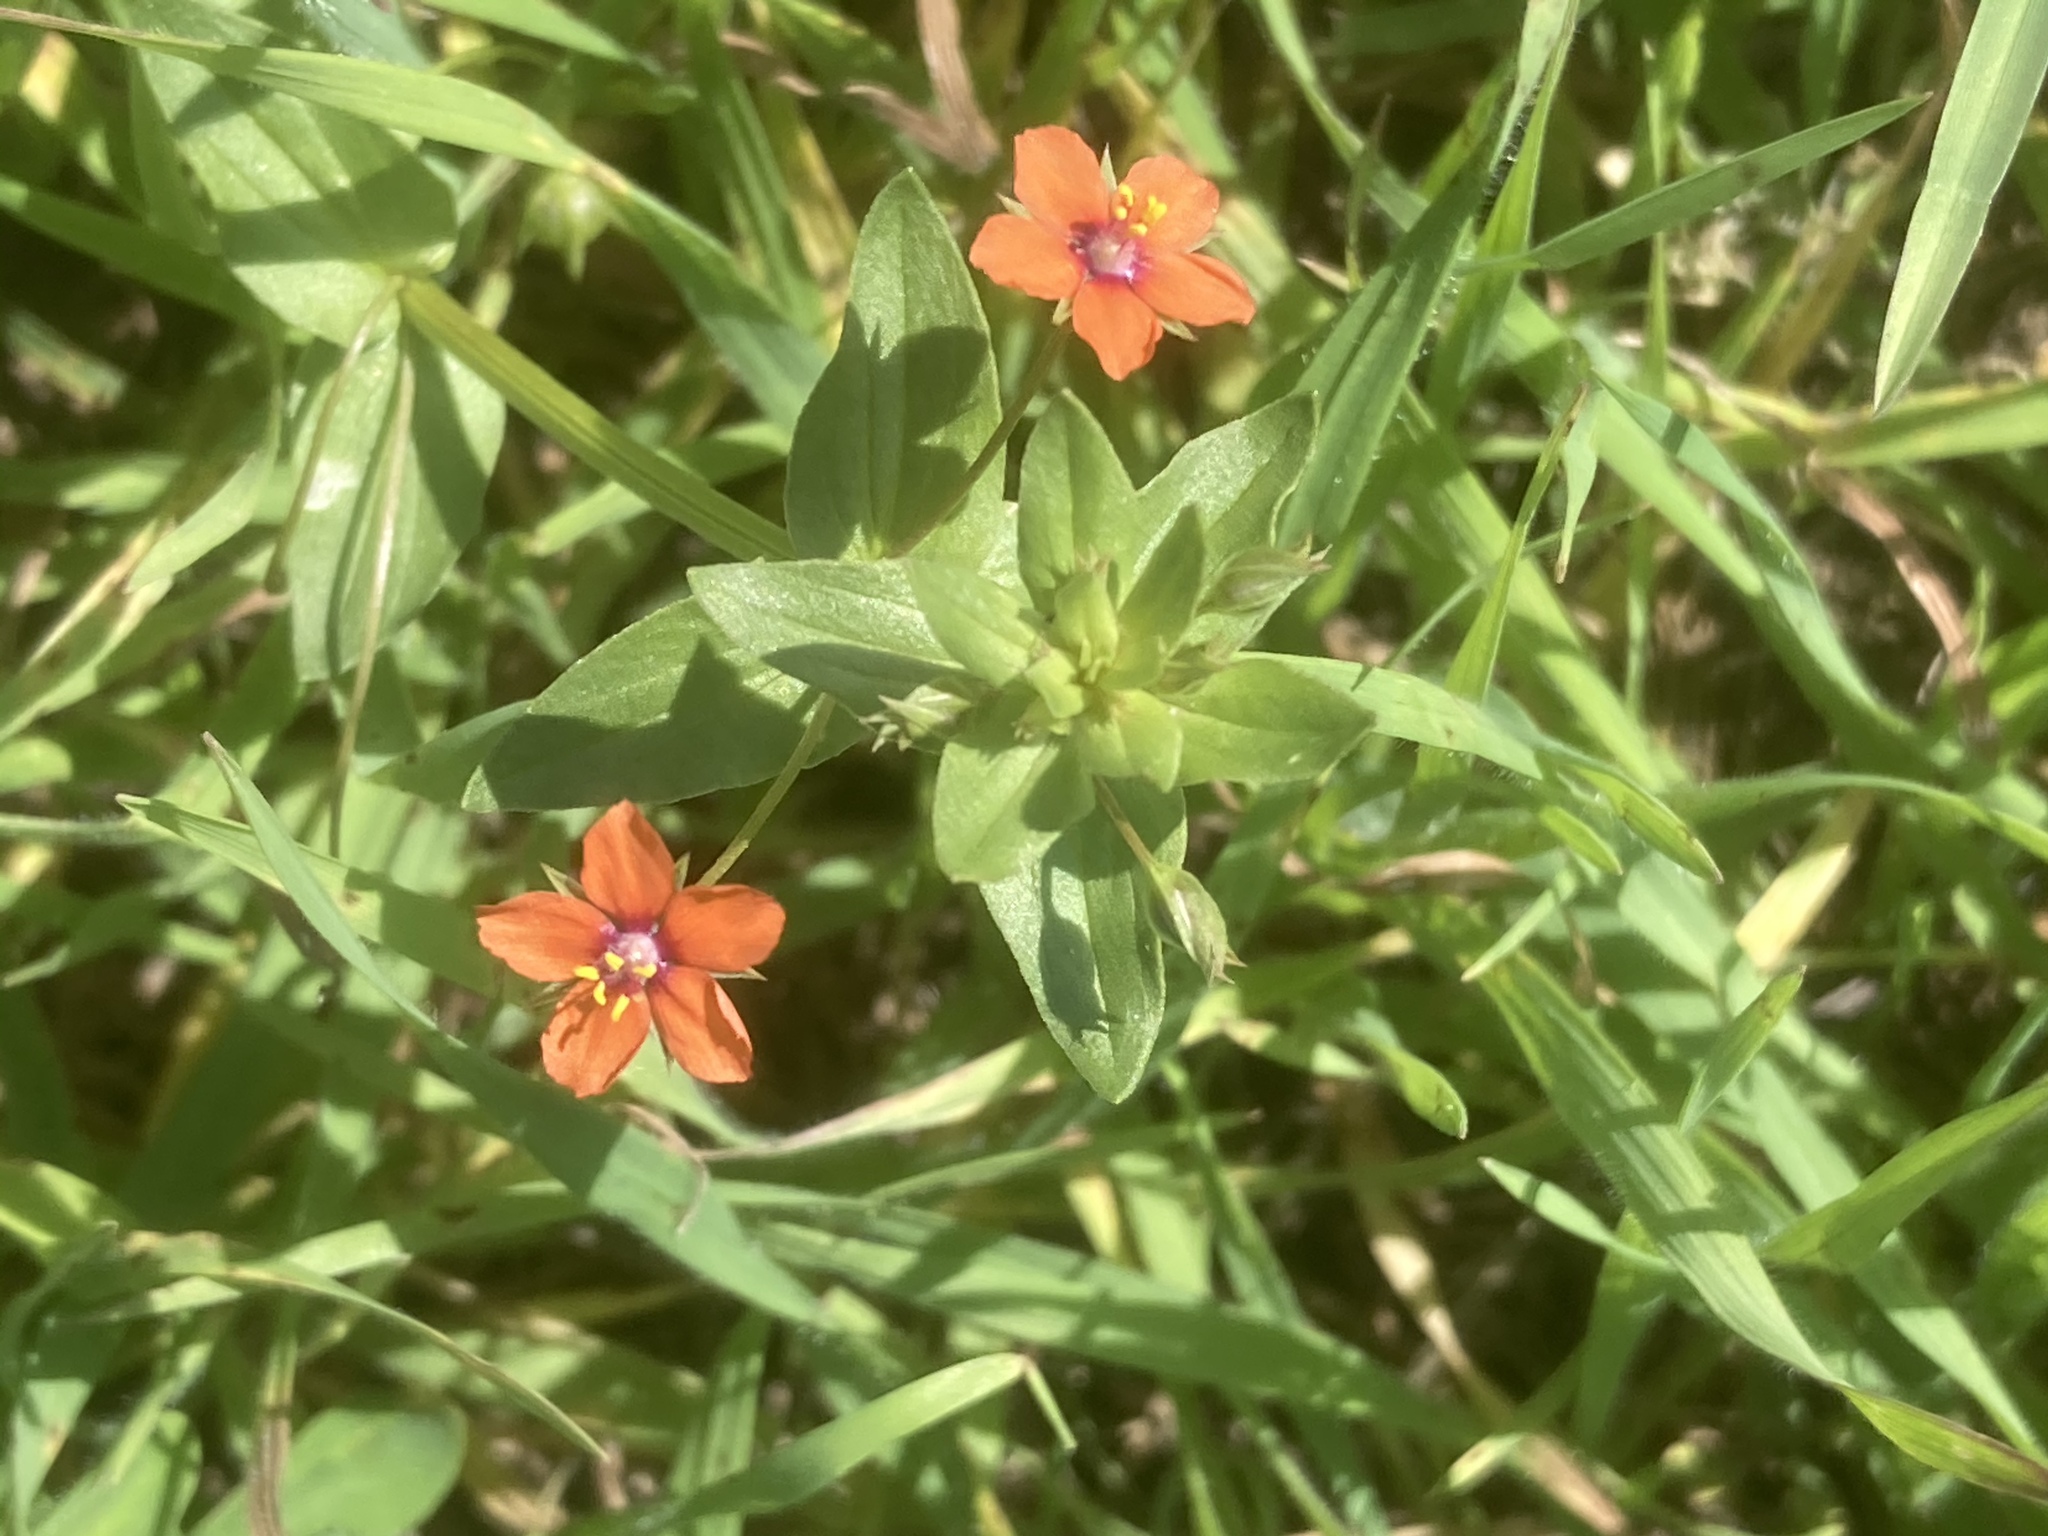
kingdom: Plantae
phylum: Tracheophyta
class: Magnoliopsida
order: Ericales
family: Primulaceae
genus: Lysimachia
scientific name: Lysimachia arvensis
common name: Scarlet pimpernel
